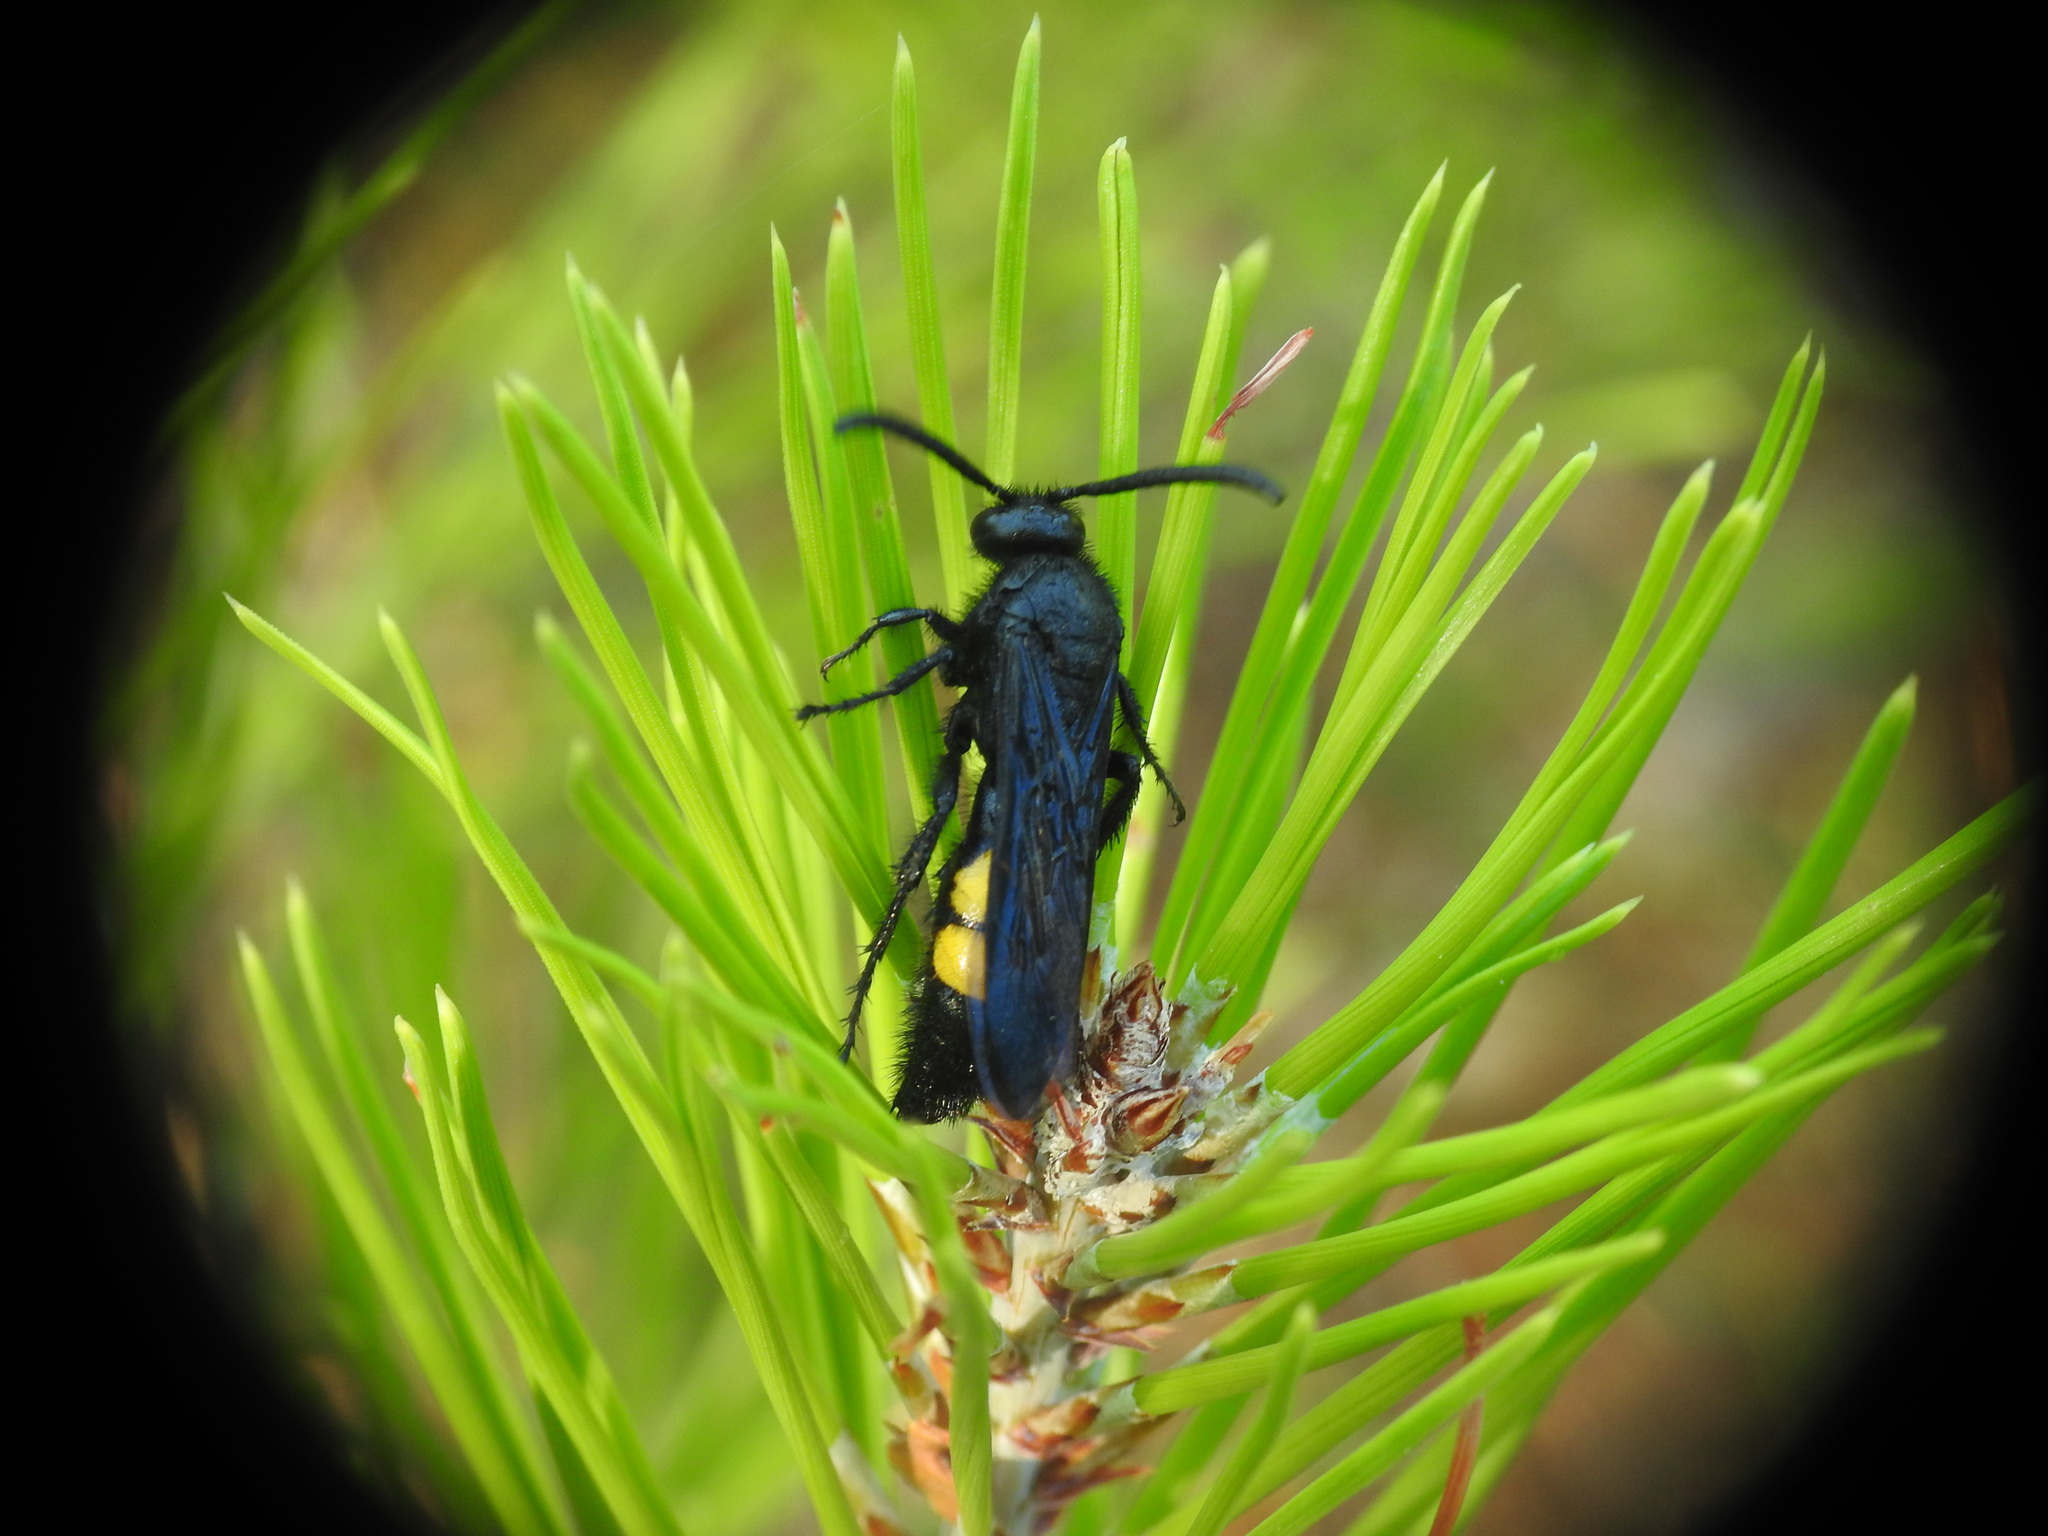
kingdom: Animalia
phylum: Arthropoda
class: Insecta
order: Hymenoptera
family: Scoliidae
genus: Scolia
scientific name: Scolia hirta
